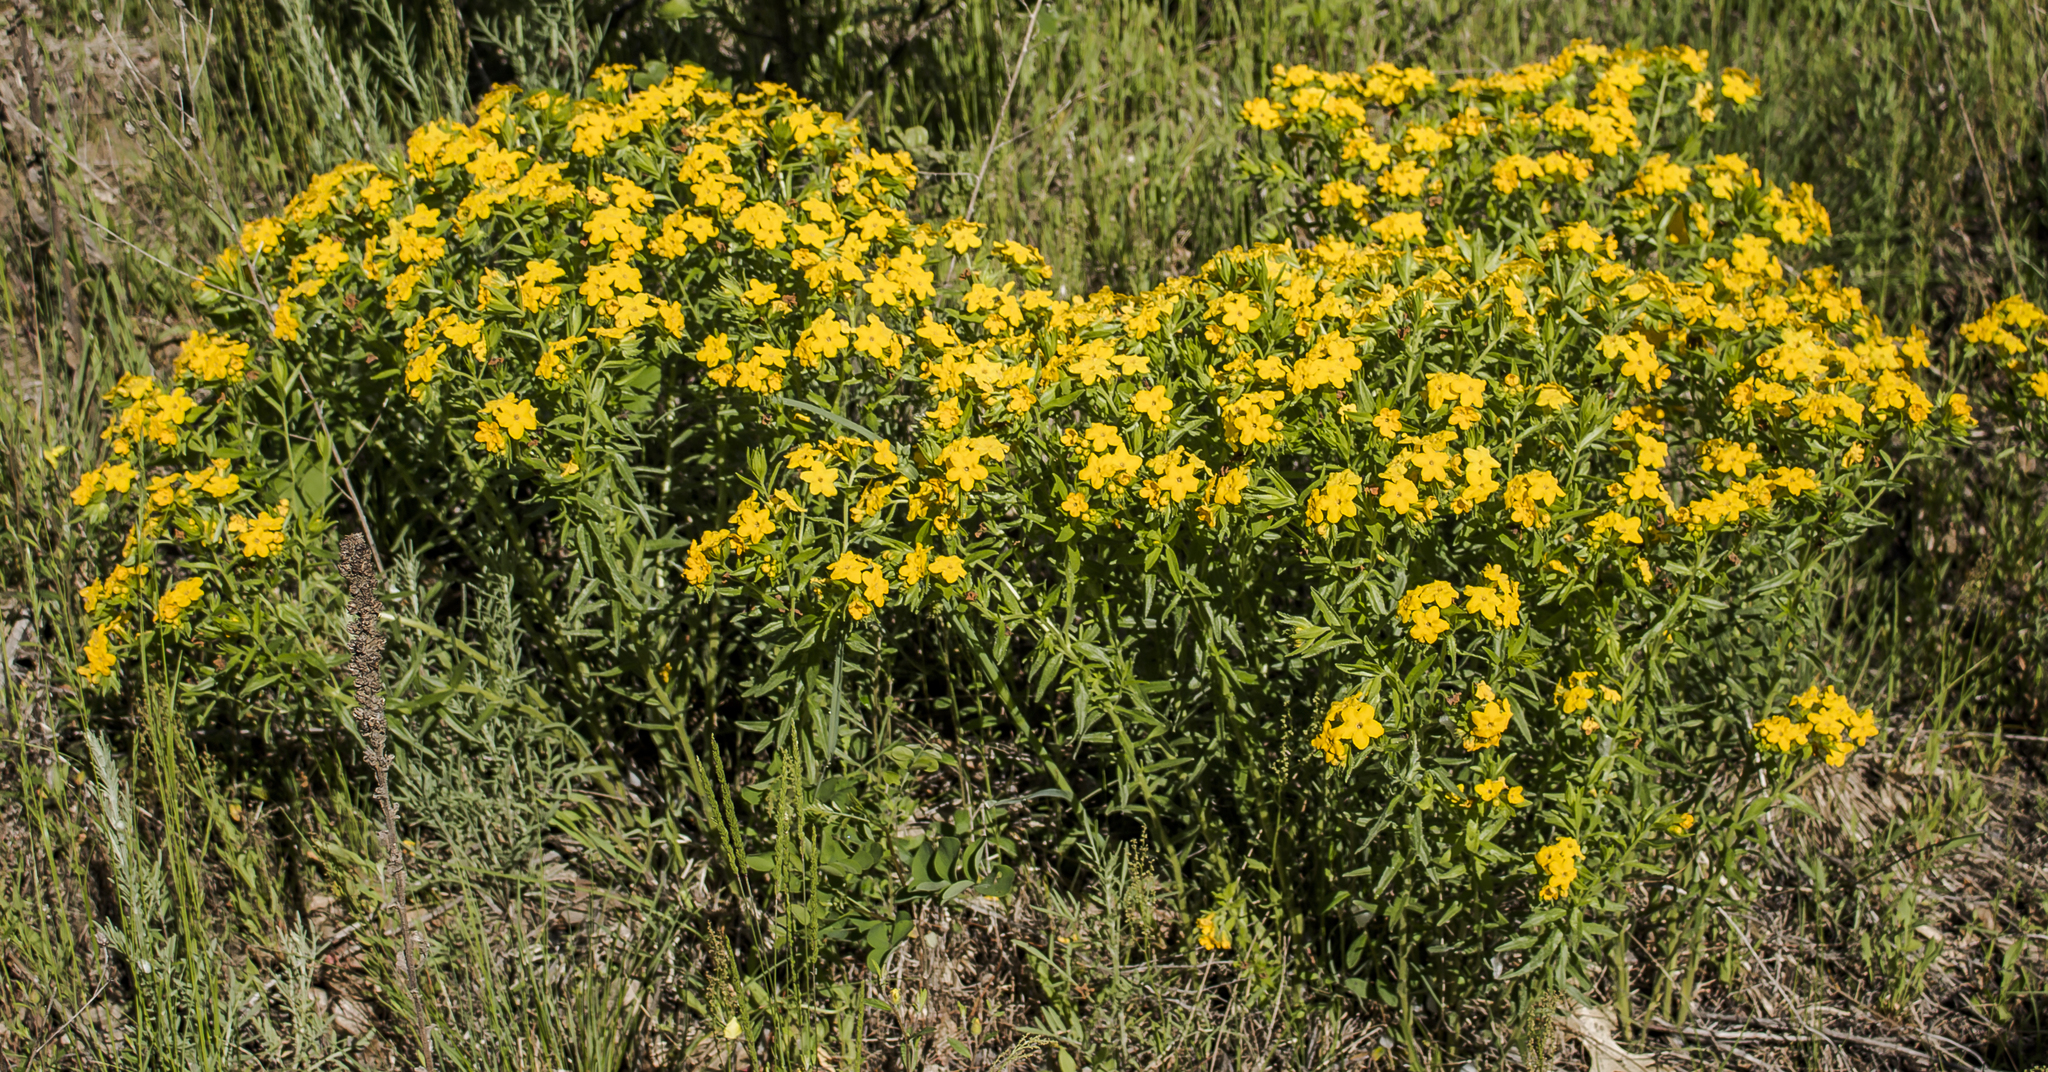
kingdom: Plantae
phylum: Tracheophyta
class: Magnoliopsida
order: Boraginales
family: Boraginaceae
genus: Lithospermum
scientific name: Lithospermum caroliniense
